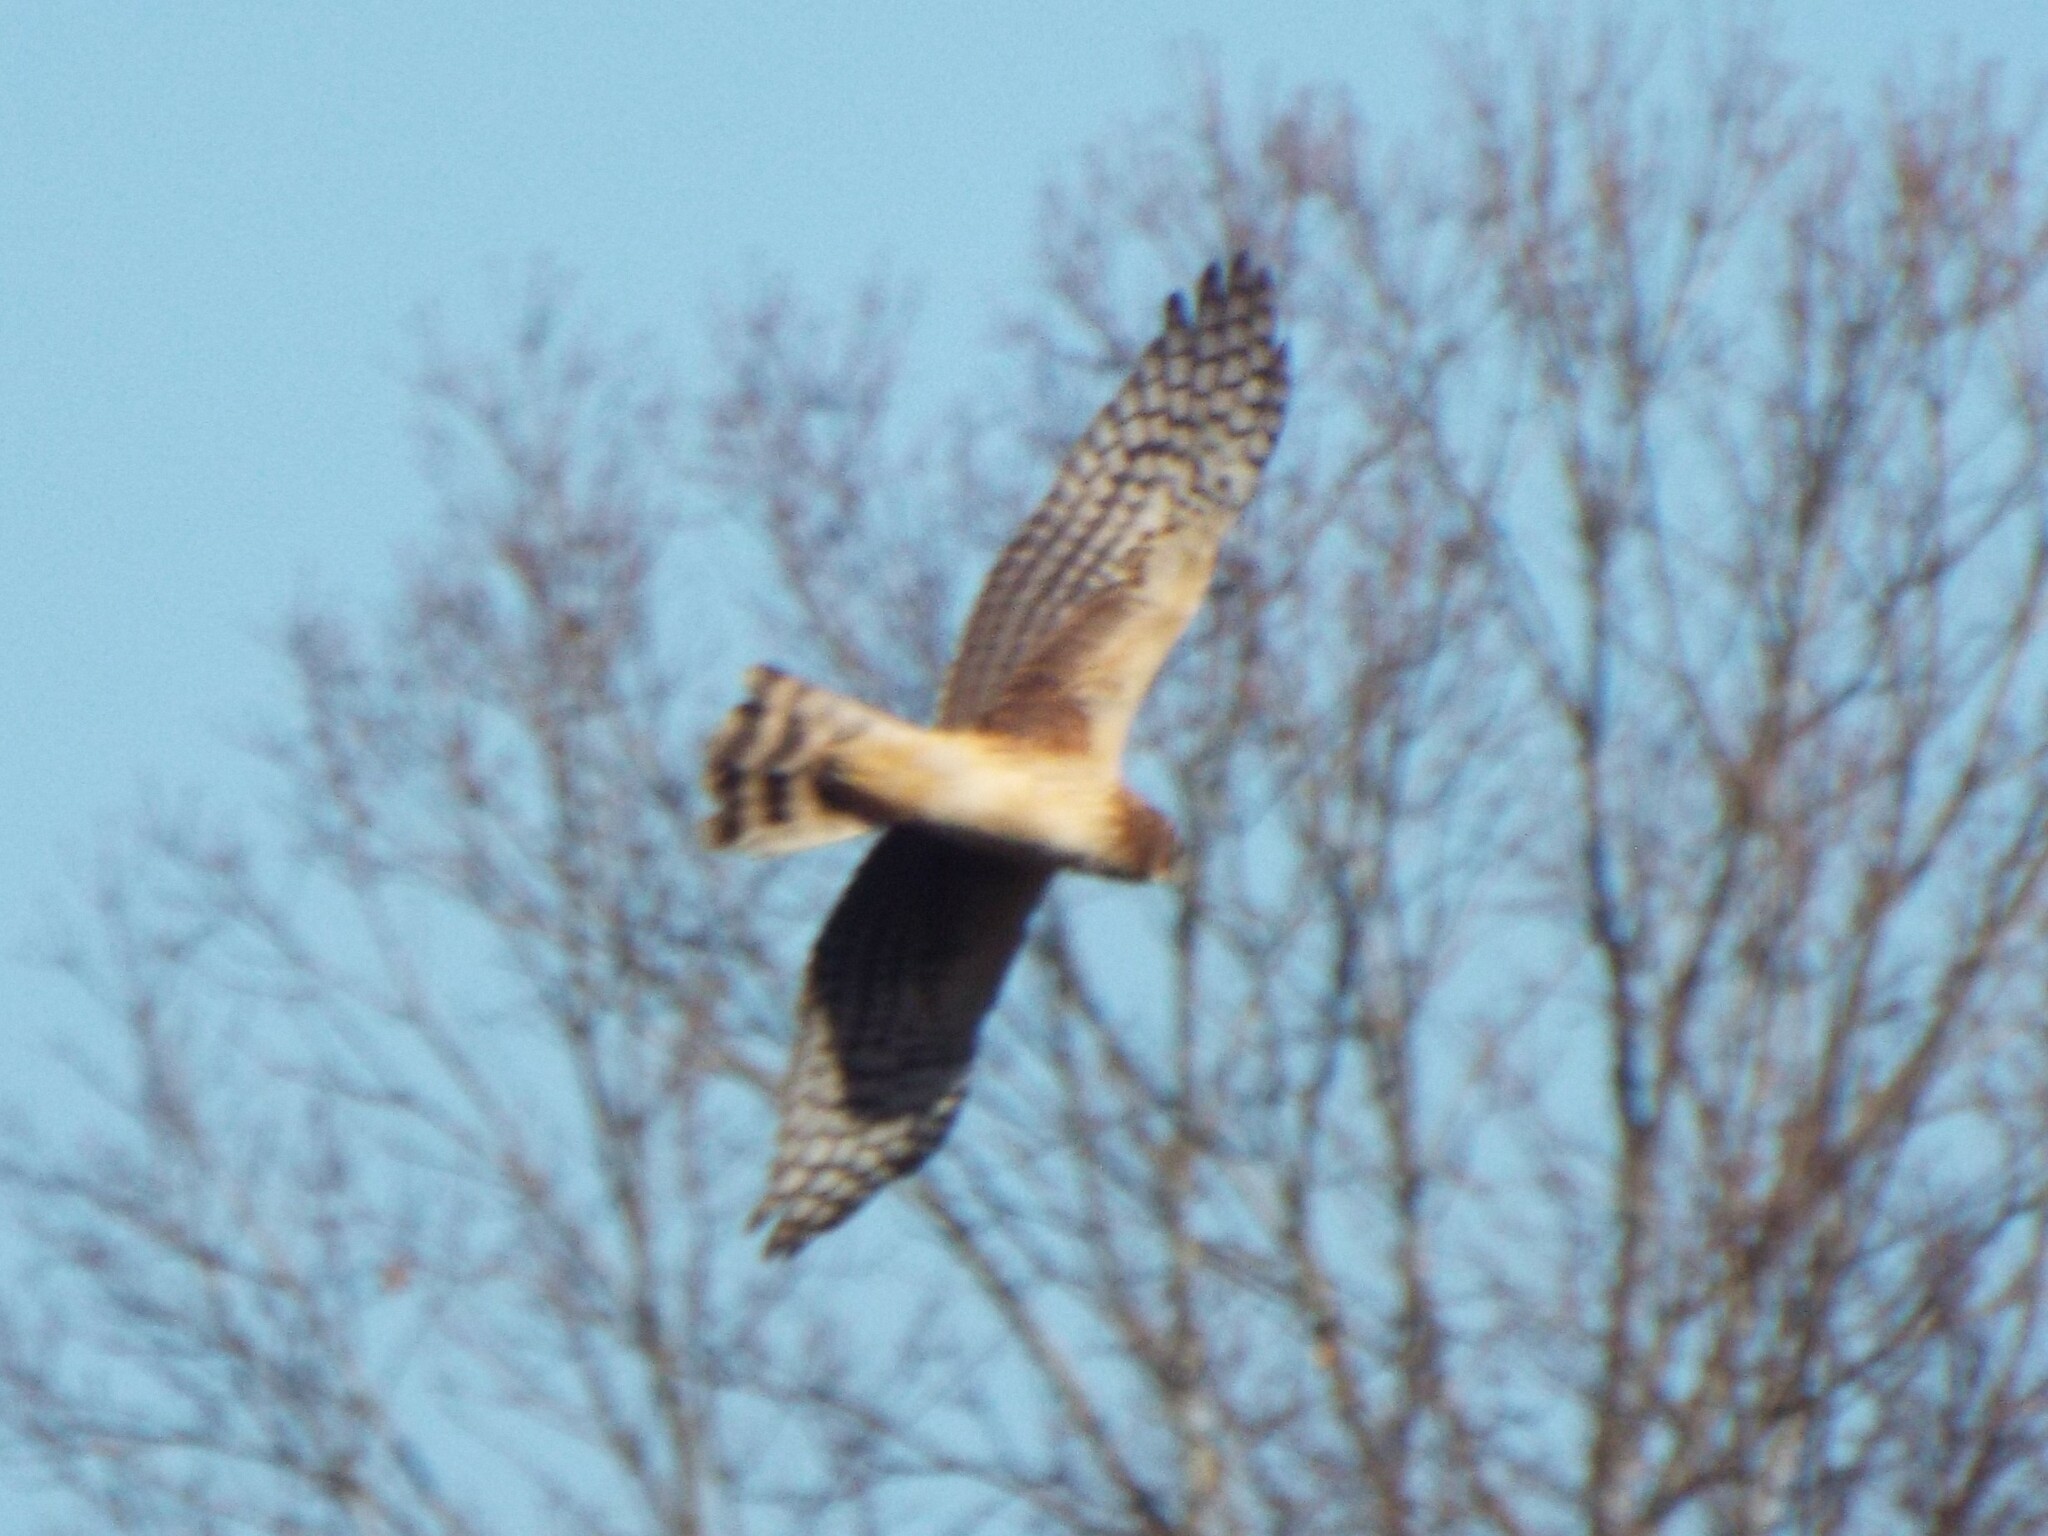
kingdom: Animalia
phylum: Chordata
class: Aves
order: Accipitriformes
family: Accipitridae
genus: Circus
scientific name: Circus cyaneus
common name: Hen harrier
